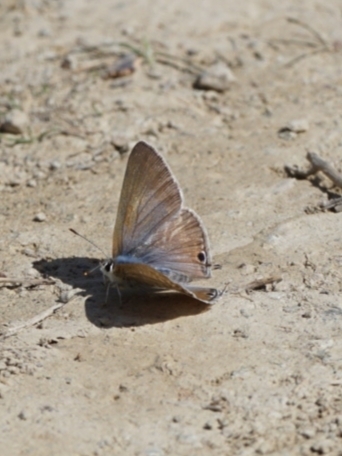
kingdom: Animalia
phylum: Arthropoda
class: Insecta
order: Lepidoptera
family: Lycaenidae
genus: Lampides
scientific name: Lampides boeticus
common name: Long-tailed blue
